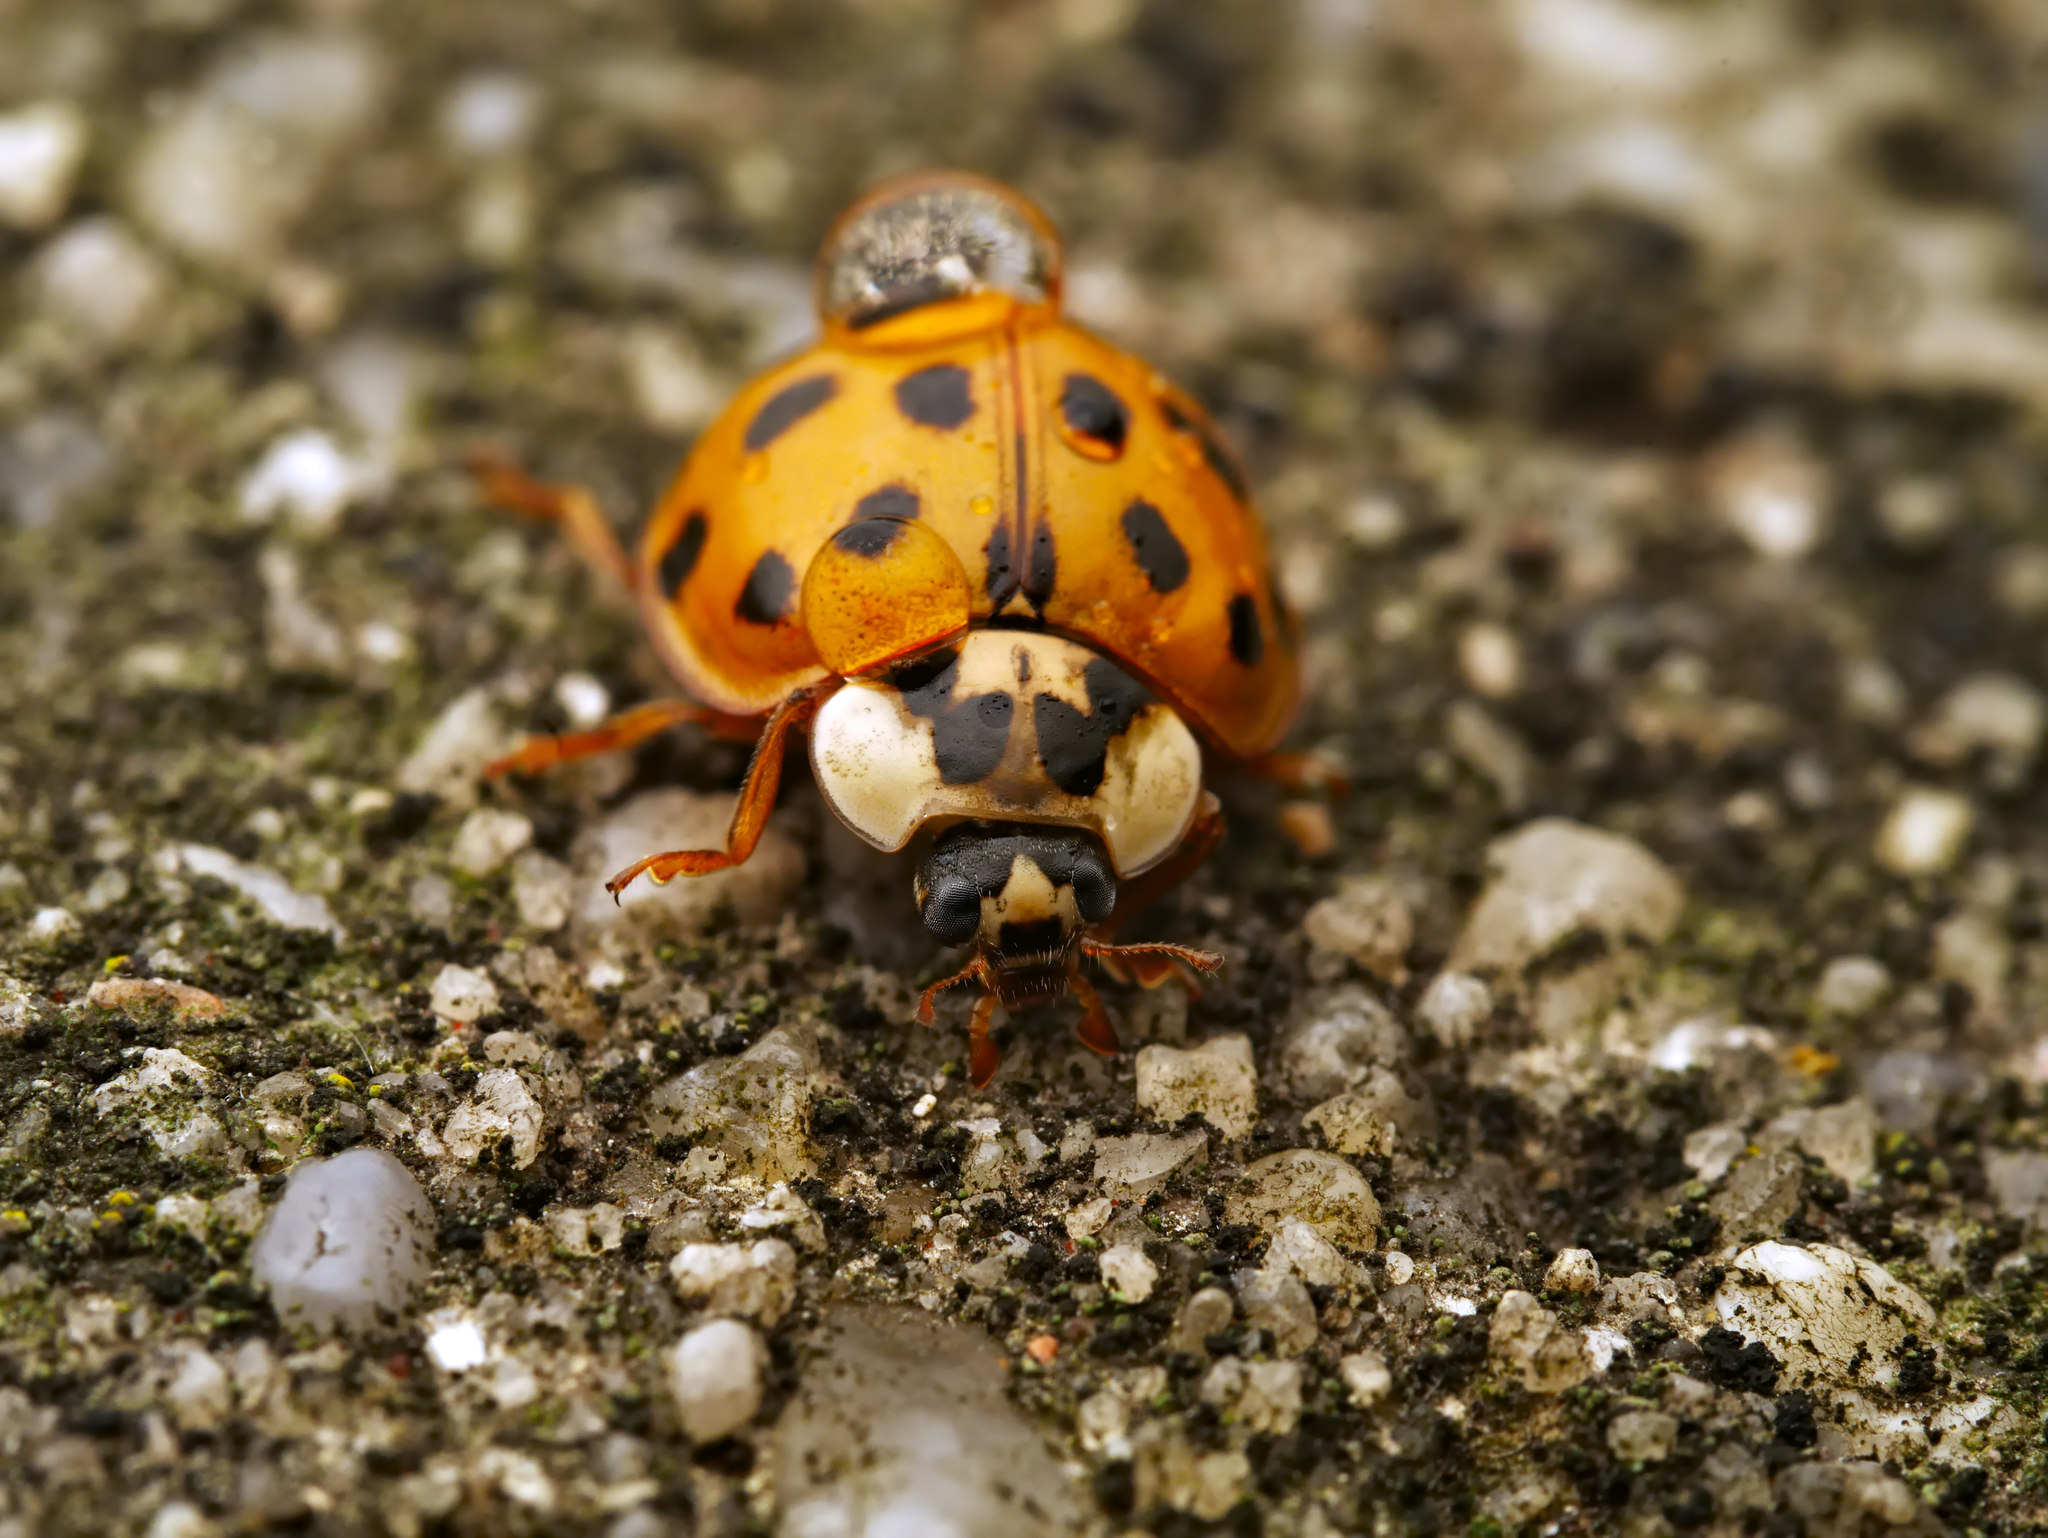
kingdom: Animalia
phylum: Arthropoda
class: Insecta
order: Coleoptera
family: Coccinellidae
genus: Harmonia
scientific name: Harmonia axyridis
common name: Harlequin ladybird
